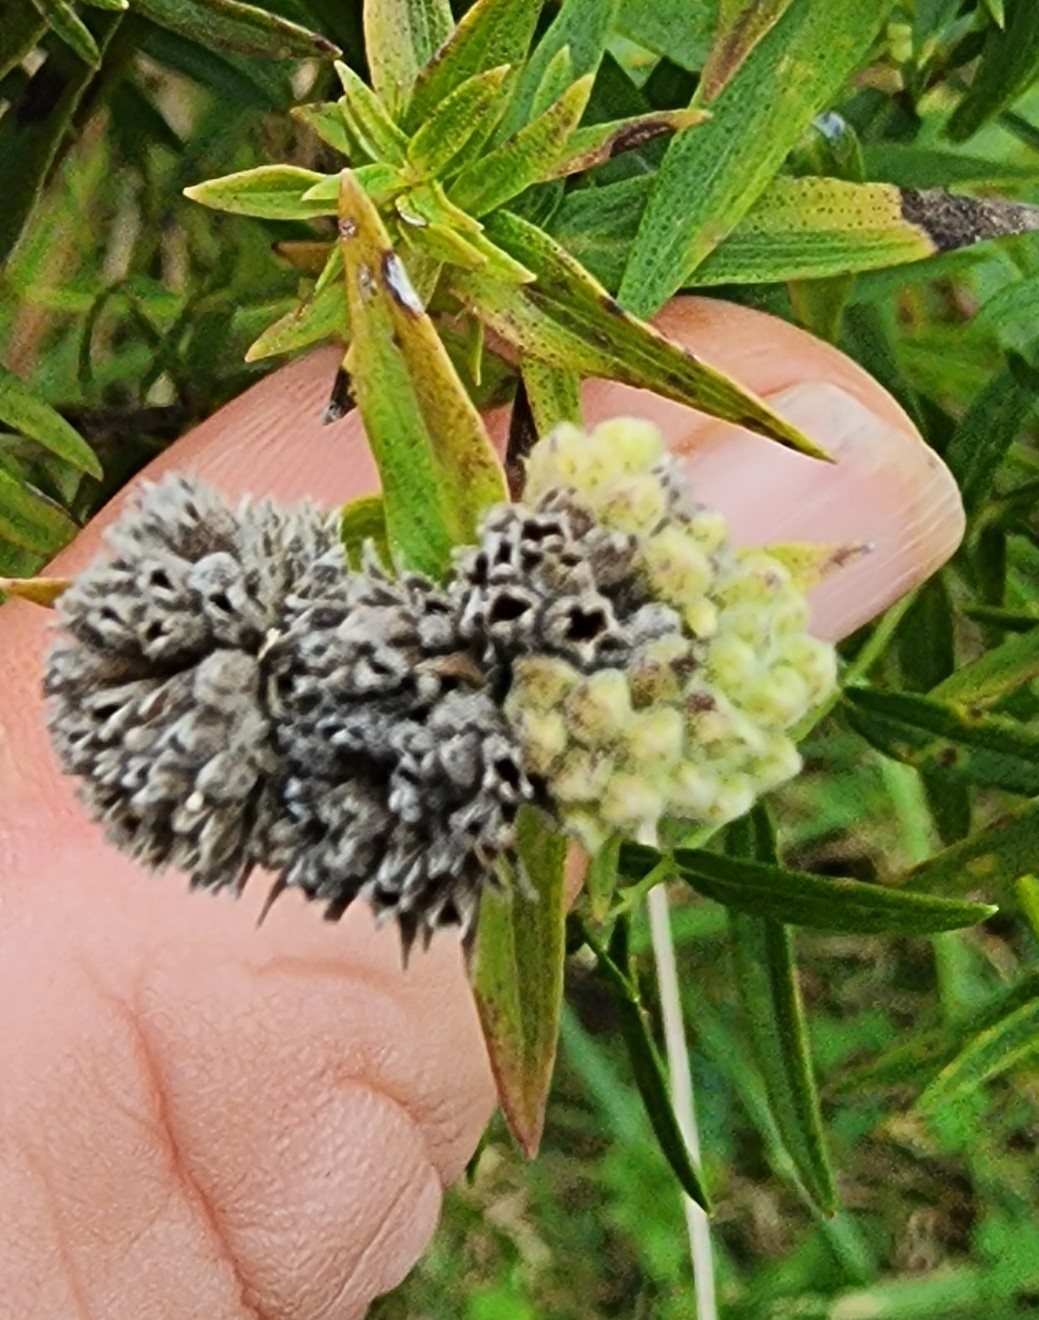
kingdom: Plantae
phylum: Tracheophyta
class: Magnoliopsida
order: Lamiales
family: Lamiaceae
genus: Pycnanthemum
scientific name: Pycnanthemum virginianum
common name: Virginia mountain-mint
